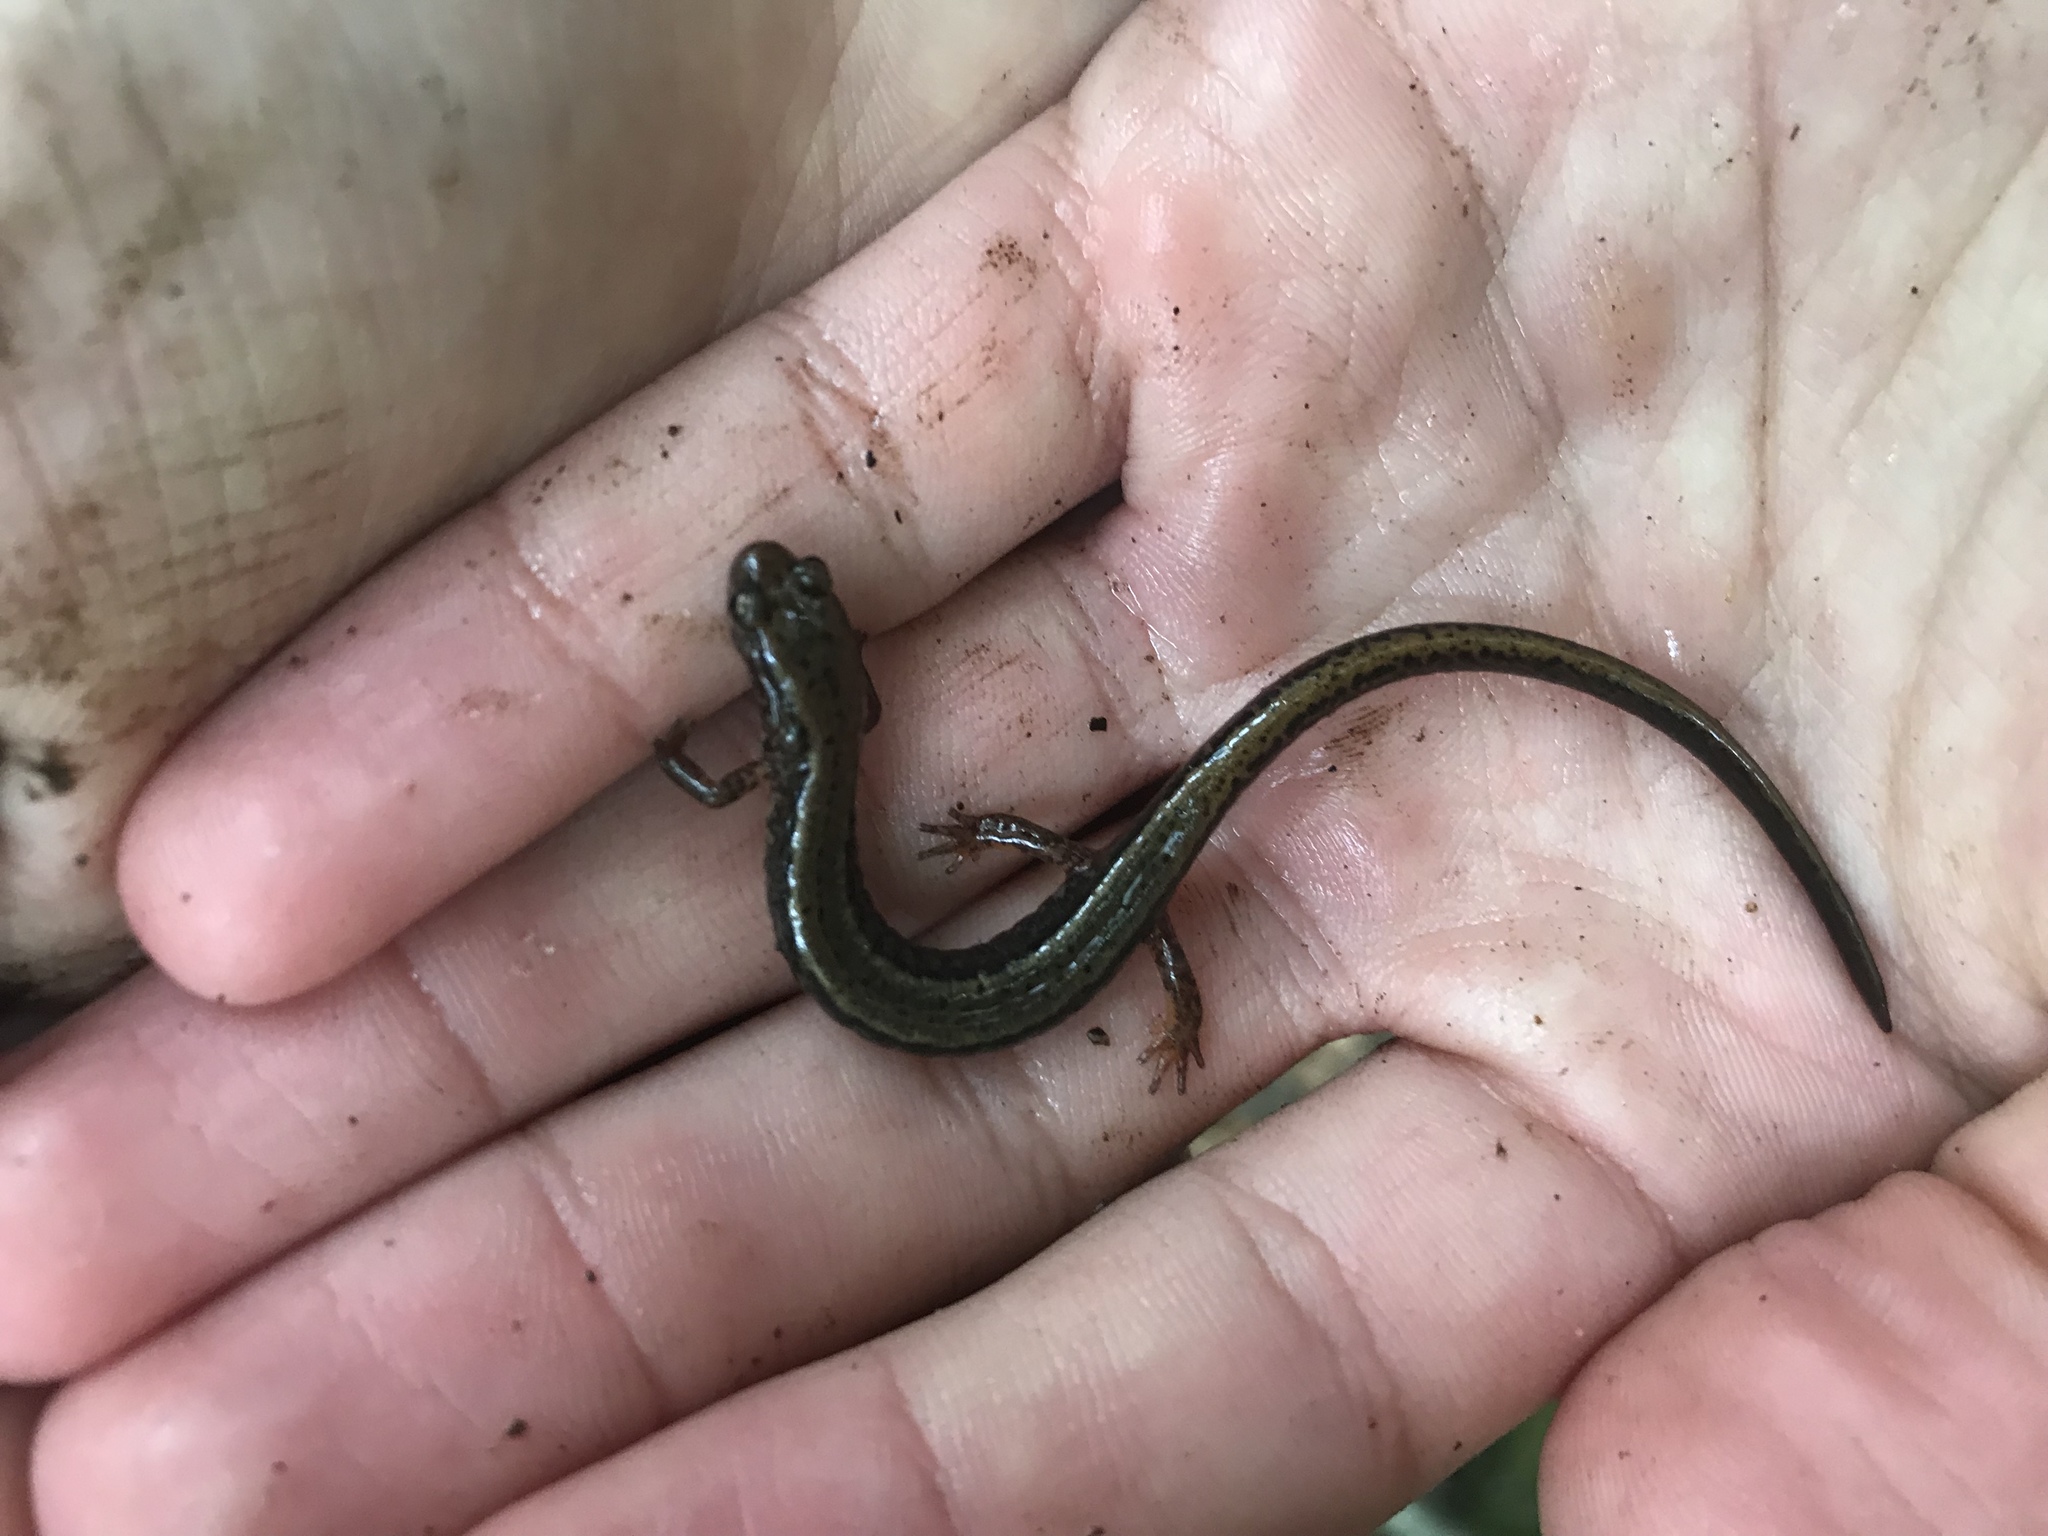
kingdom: Animalia
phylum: Chordata
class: Amphibia
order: Caudata
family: Plethodontidae
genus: Eurycea
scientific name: Eurycea bislineata
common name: Northern two-lined salamander
